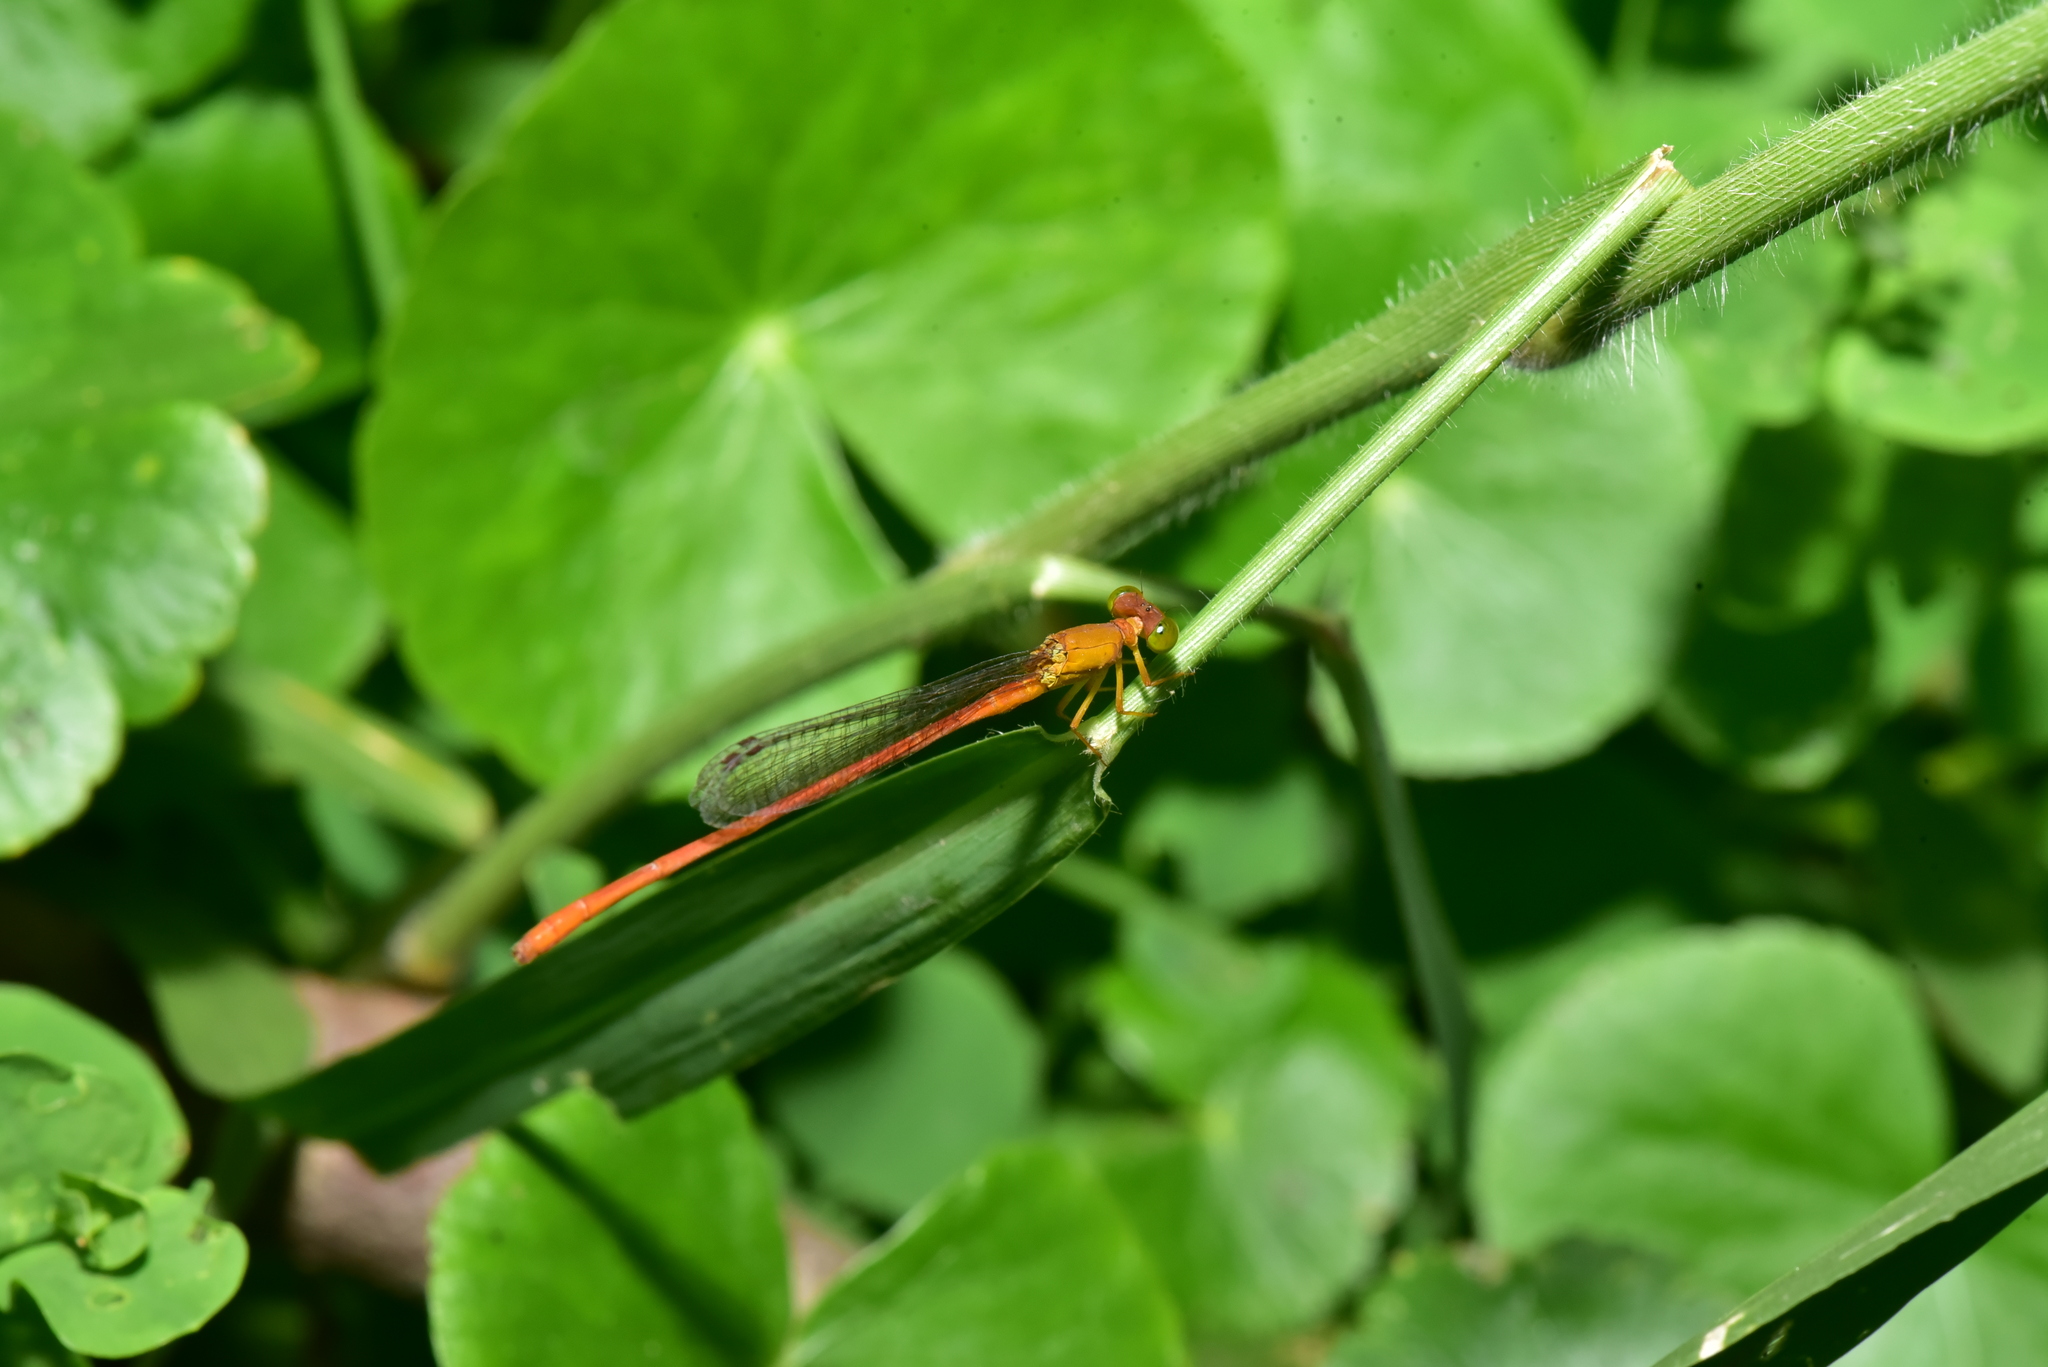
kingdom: Animalia
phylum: Arthropoda
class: Insecta
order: Odonata
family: Coenagrionidae
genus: Ceriagrion
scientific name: Ceriagrion auranticum
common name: Orange-tailed sprite
